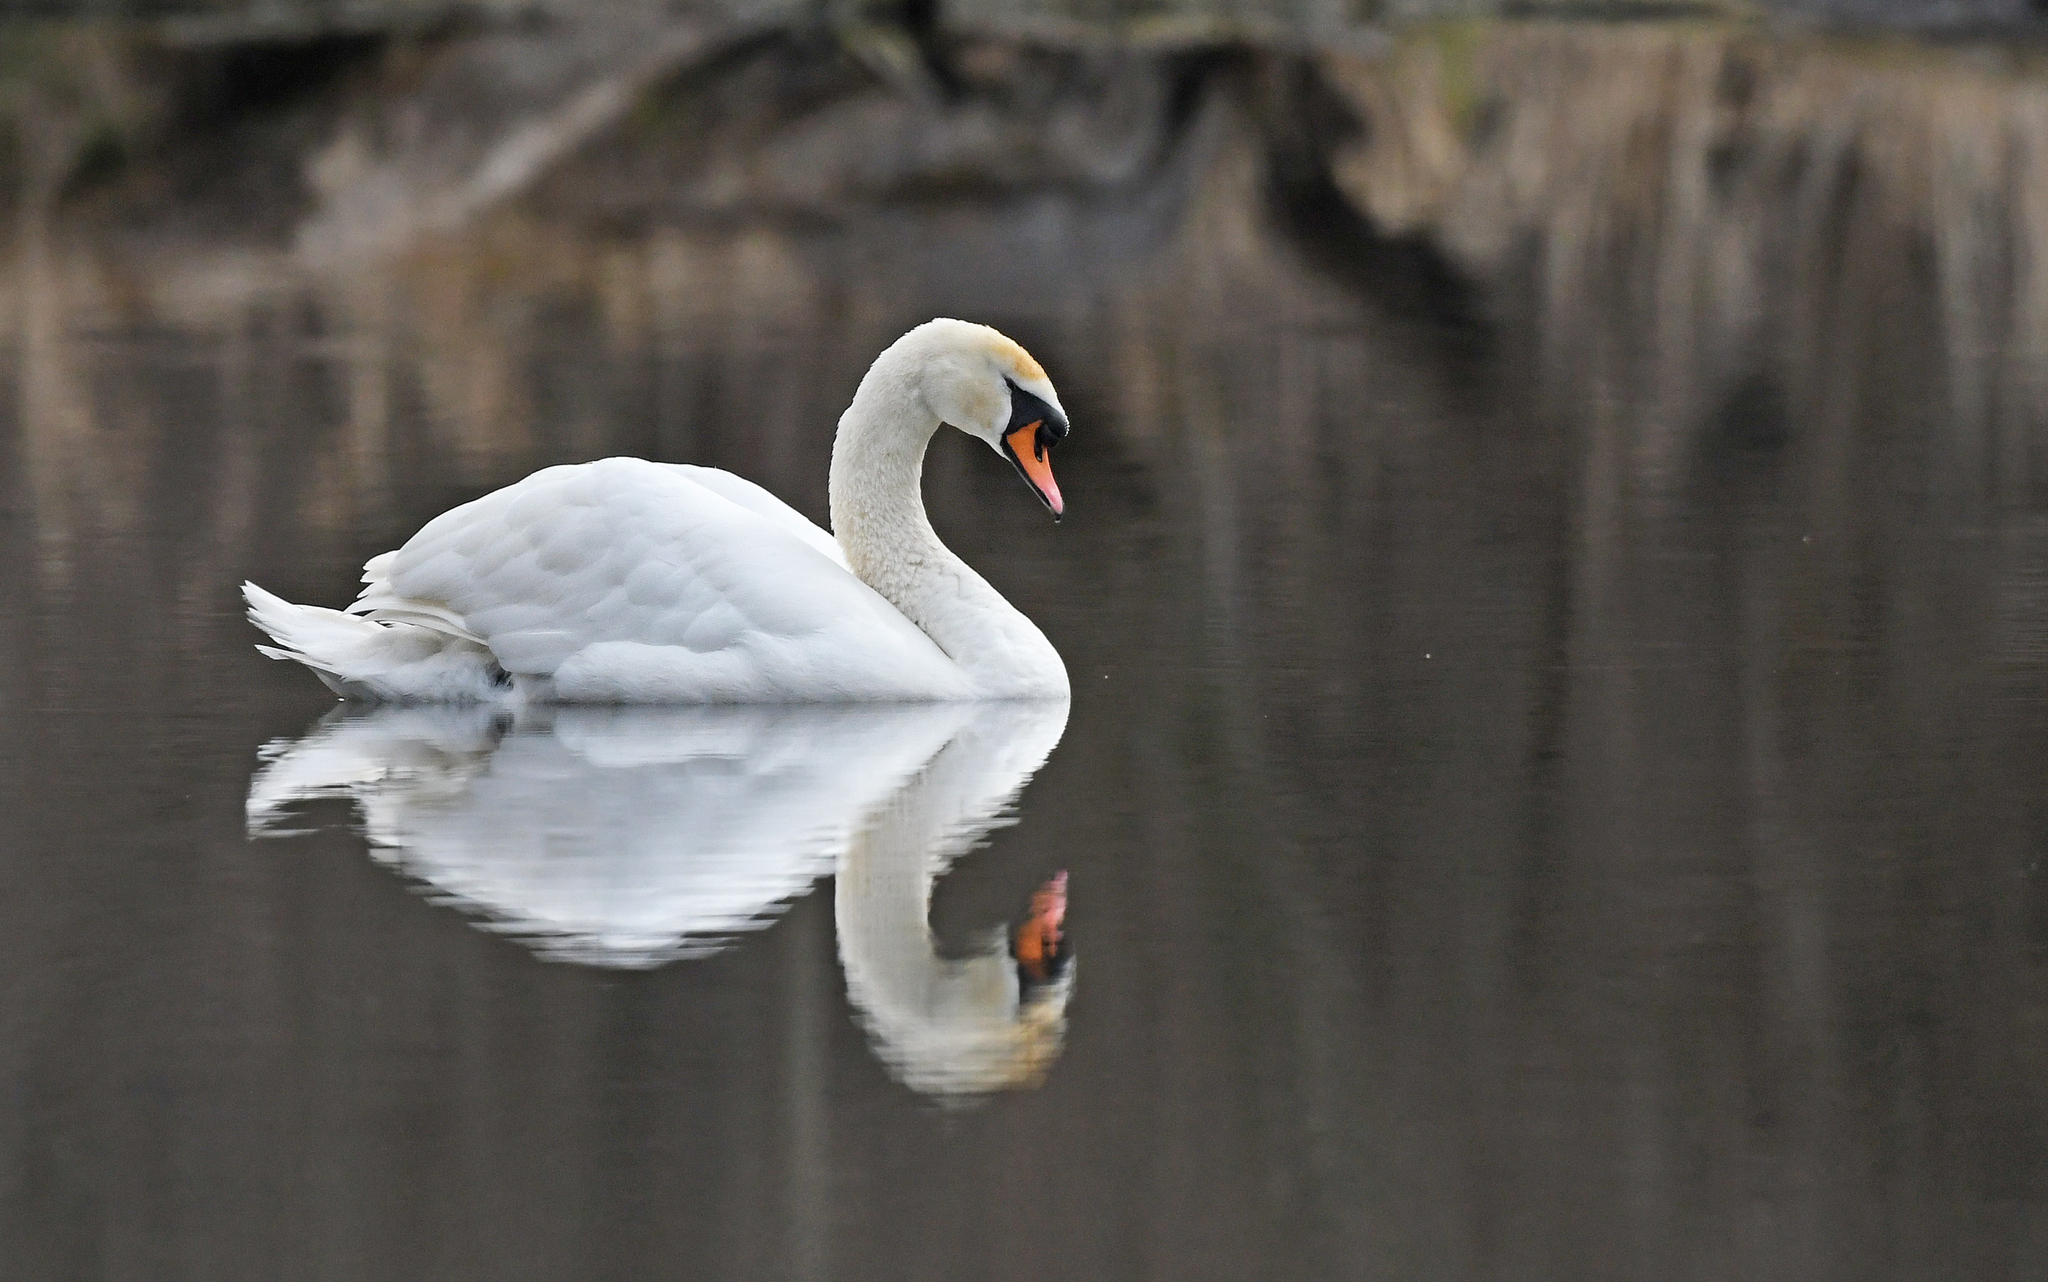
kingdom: Animalia
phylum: Chordata
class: Aves
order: Anseriformes
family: Anatidae
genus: Cygnus
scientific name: Cygnus olor
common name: Mute swan
